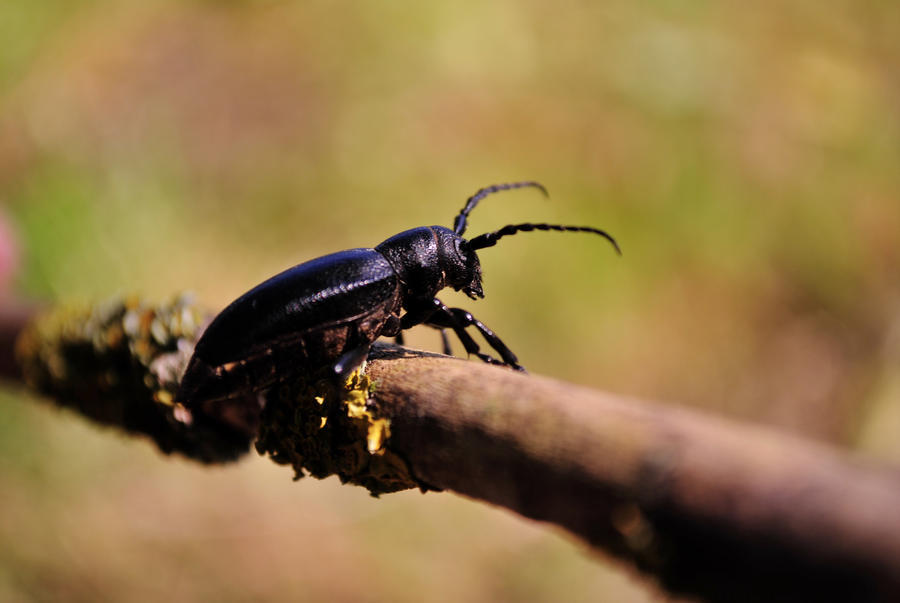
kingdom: Animalia
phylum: Arthropoda
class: Insecta
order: Coleoptera
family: Cerambycidae
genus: Dorcadion
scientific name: Dorcadion aethiops
